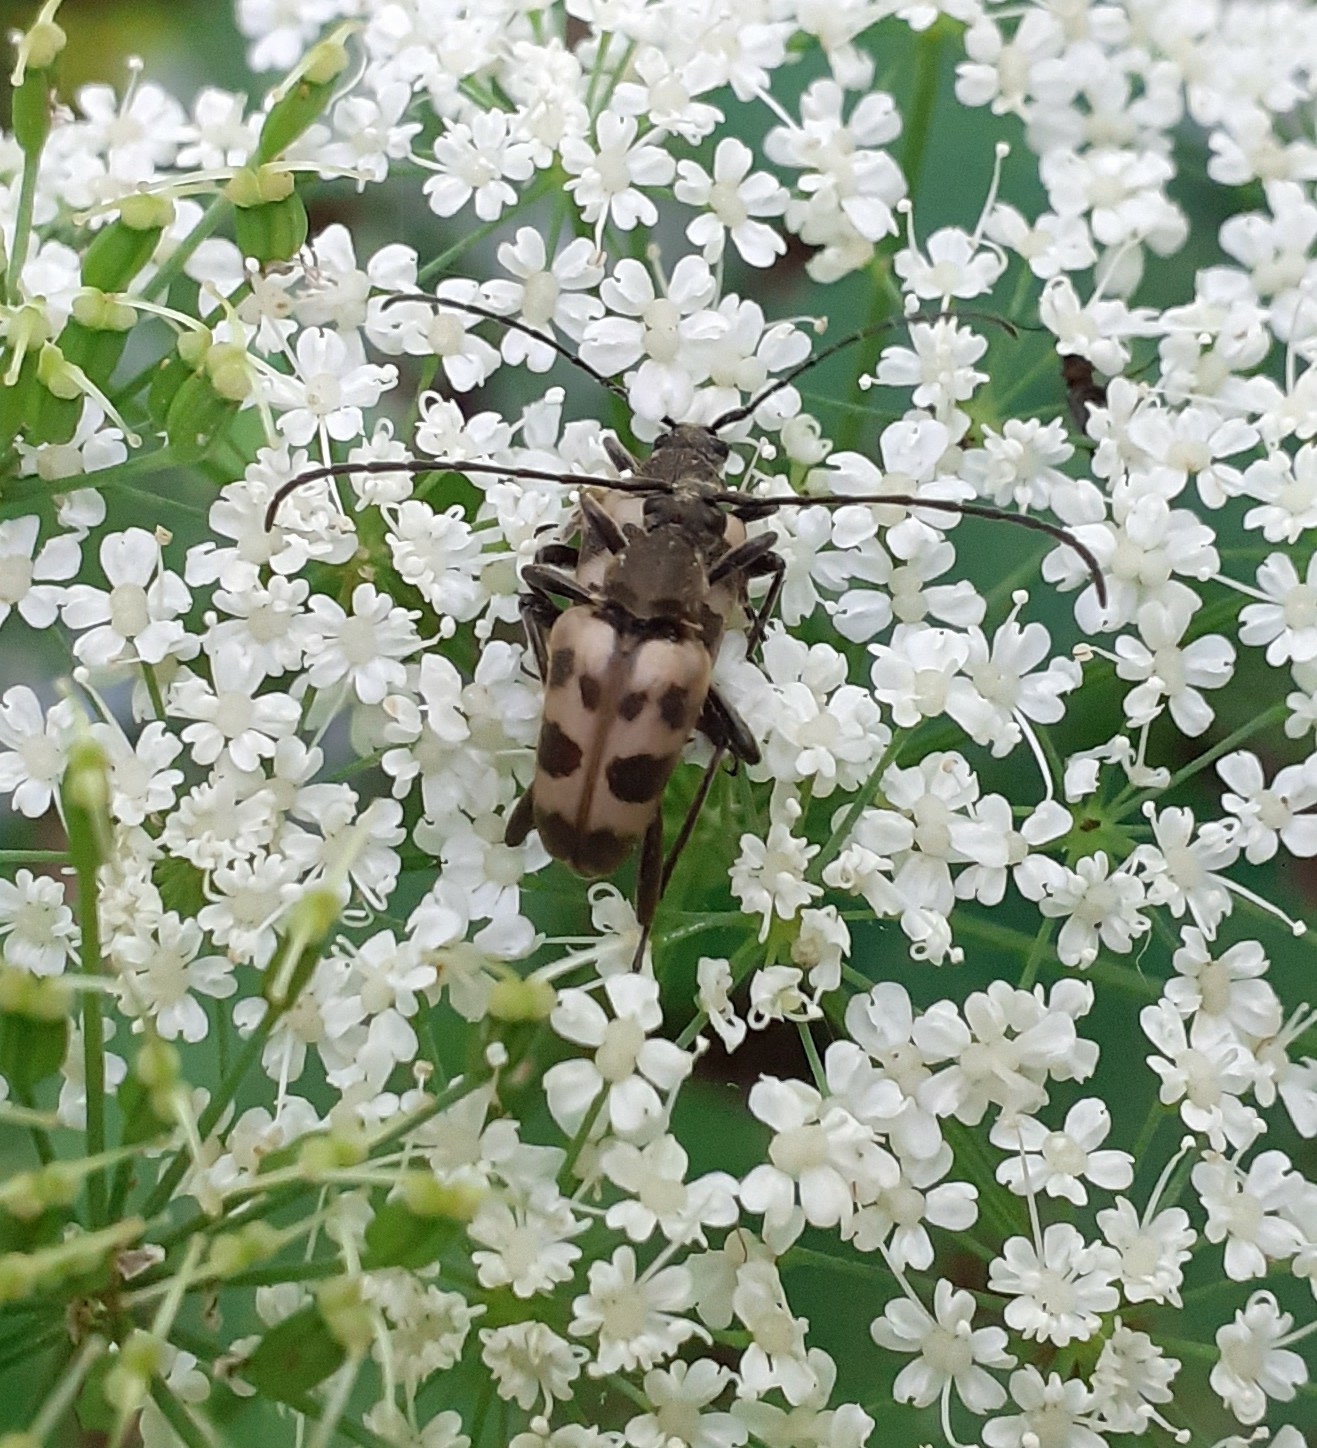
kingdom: Animalia
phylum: Arthropoda
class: Insecta
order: Coleoptera
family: Cerambycidae
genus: Pachytodes
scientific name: Pachytodes cerambyciformis
